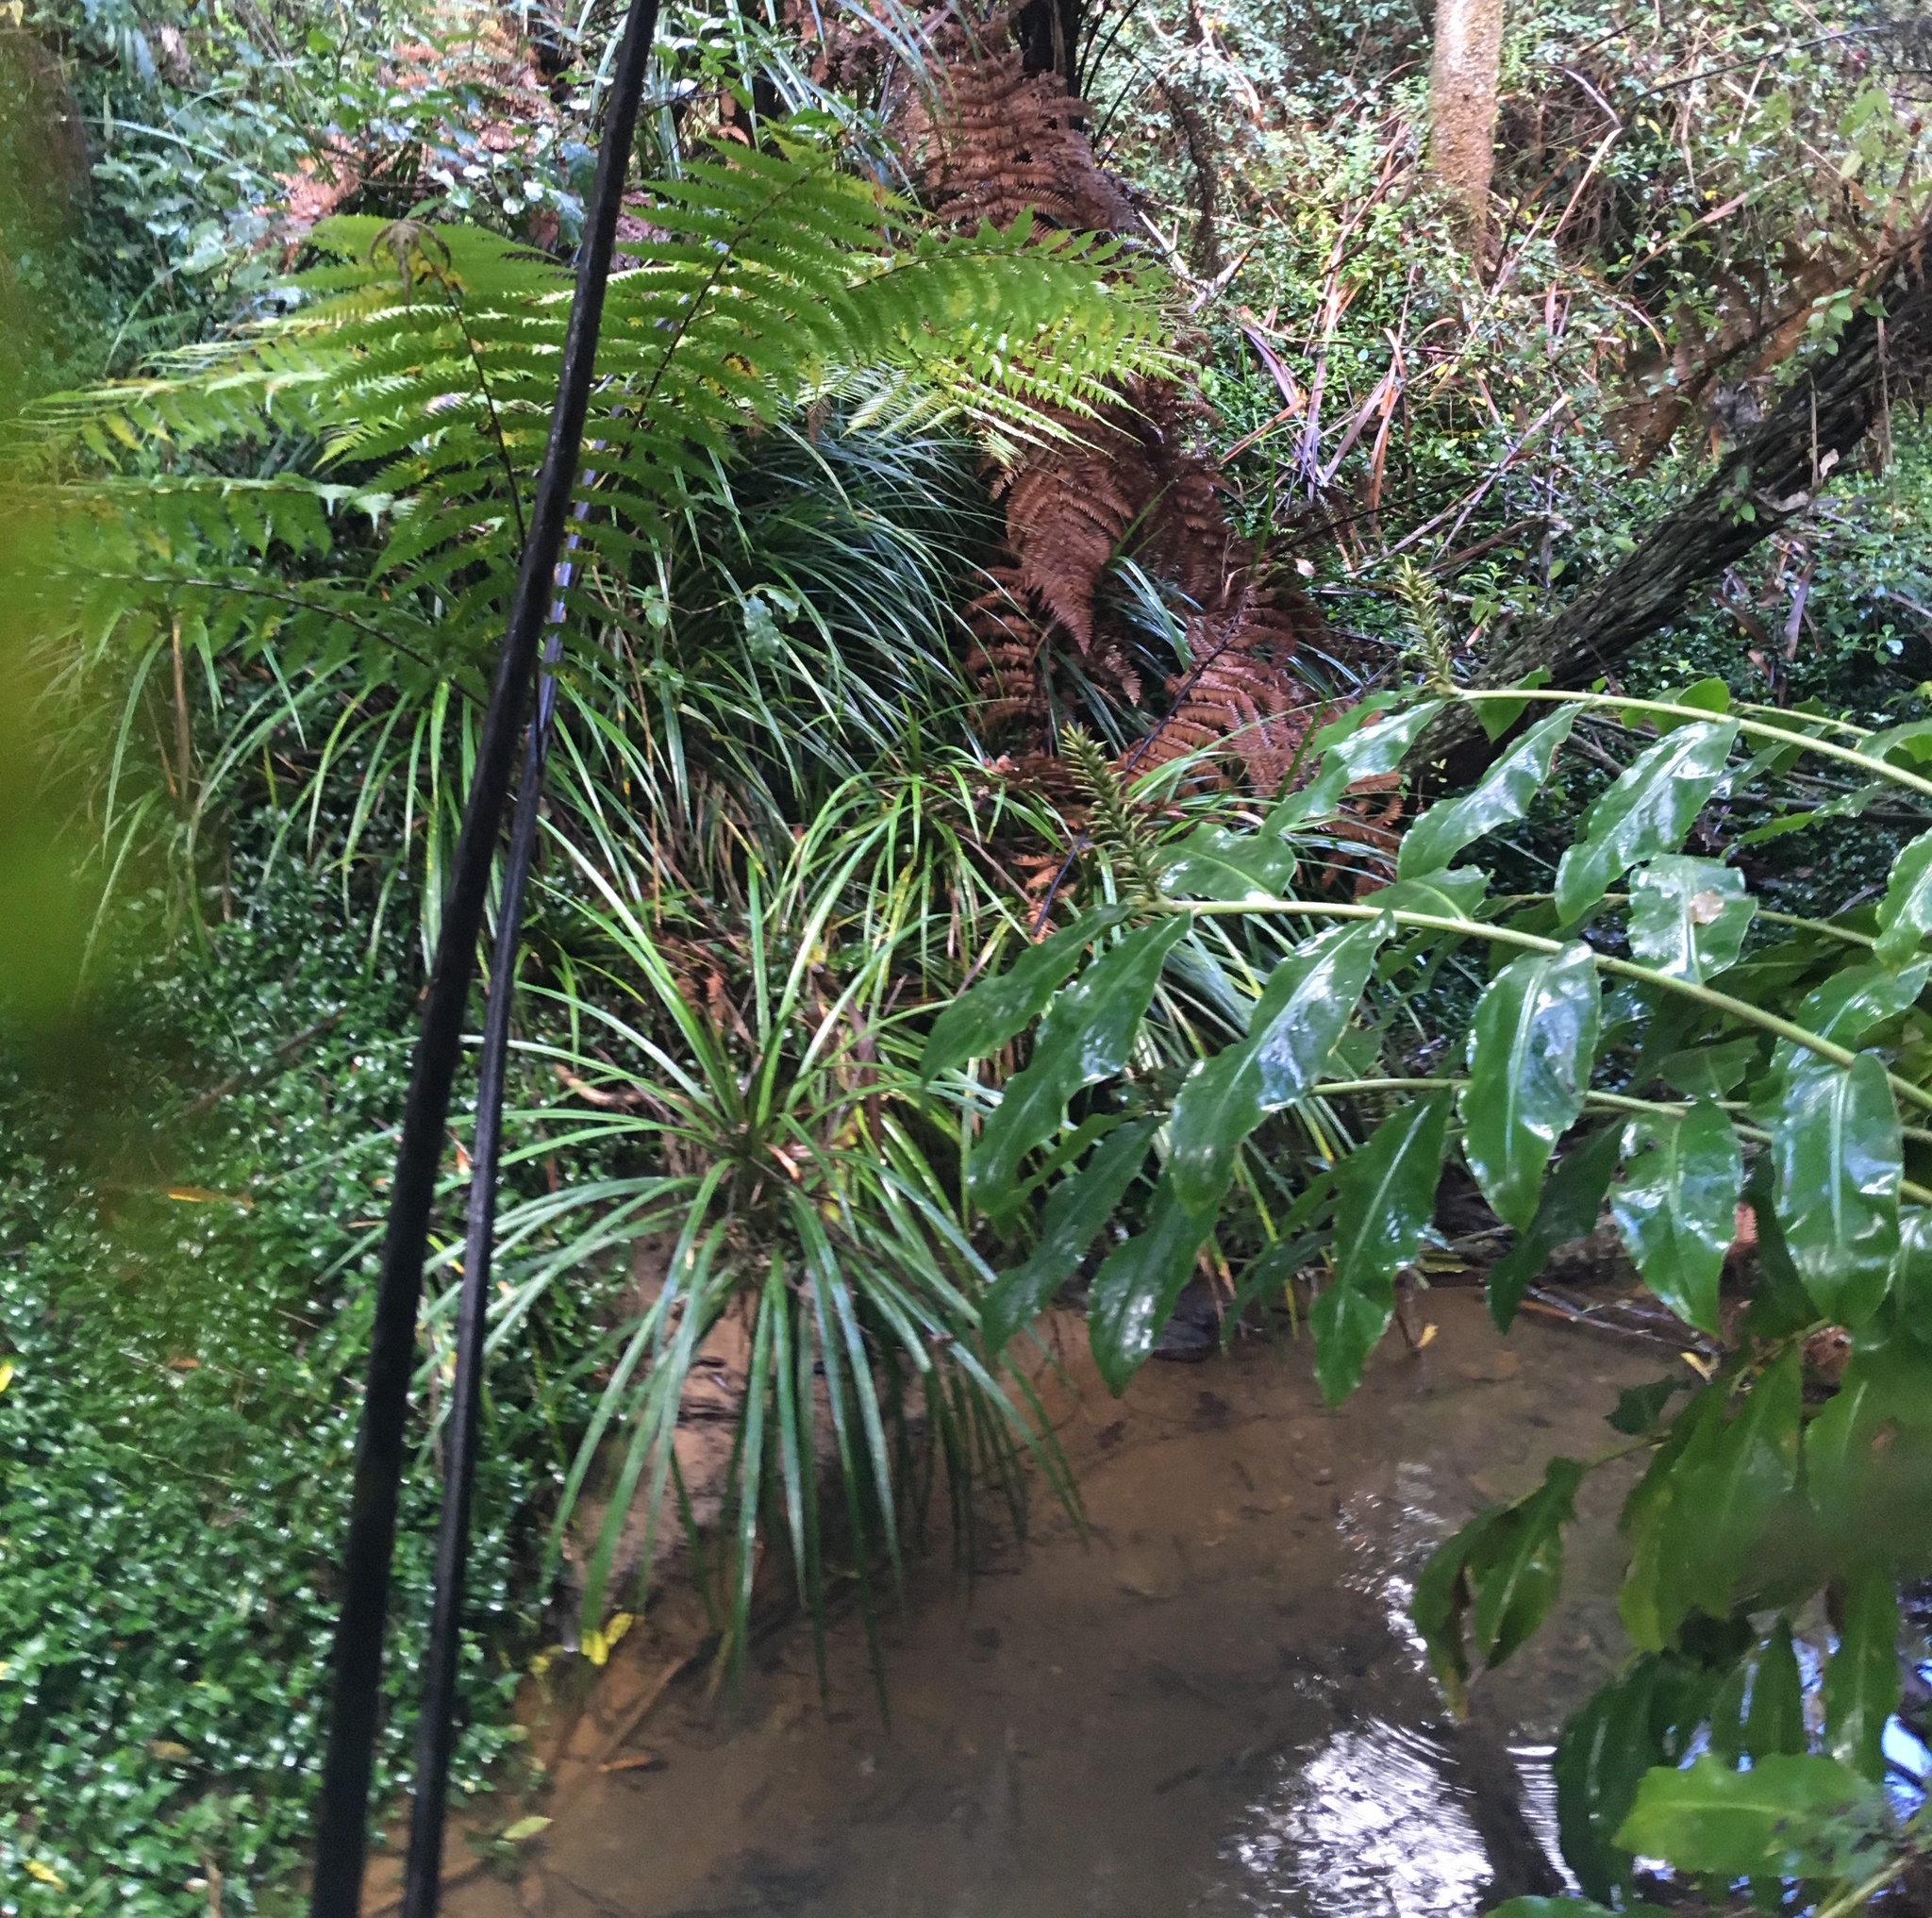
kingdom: Plantae
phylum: Tracheophyta
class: Liliopsida
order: Pandanales
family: Pandanaceae
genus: Freycinetia
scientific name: Freycinetia banksii
